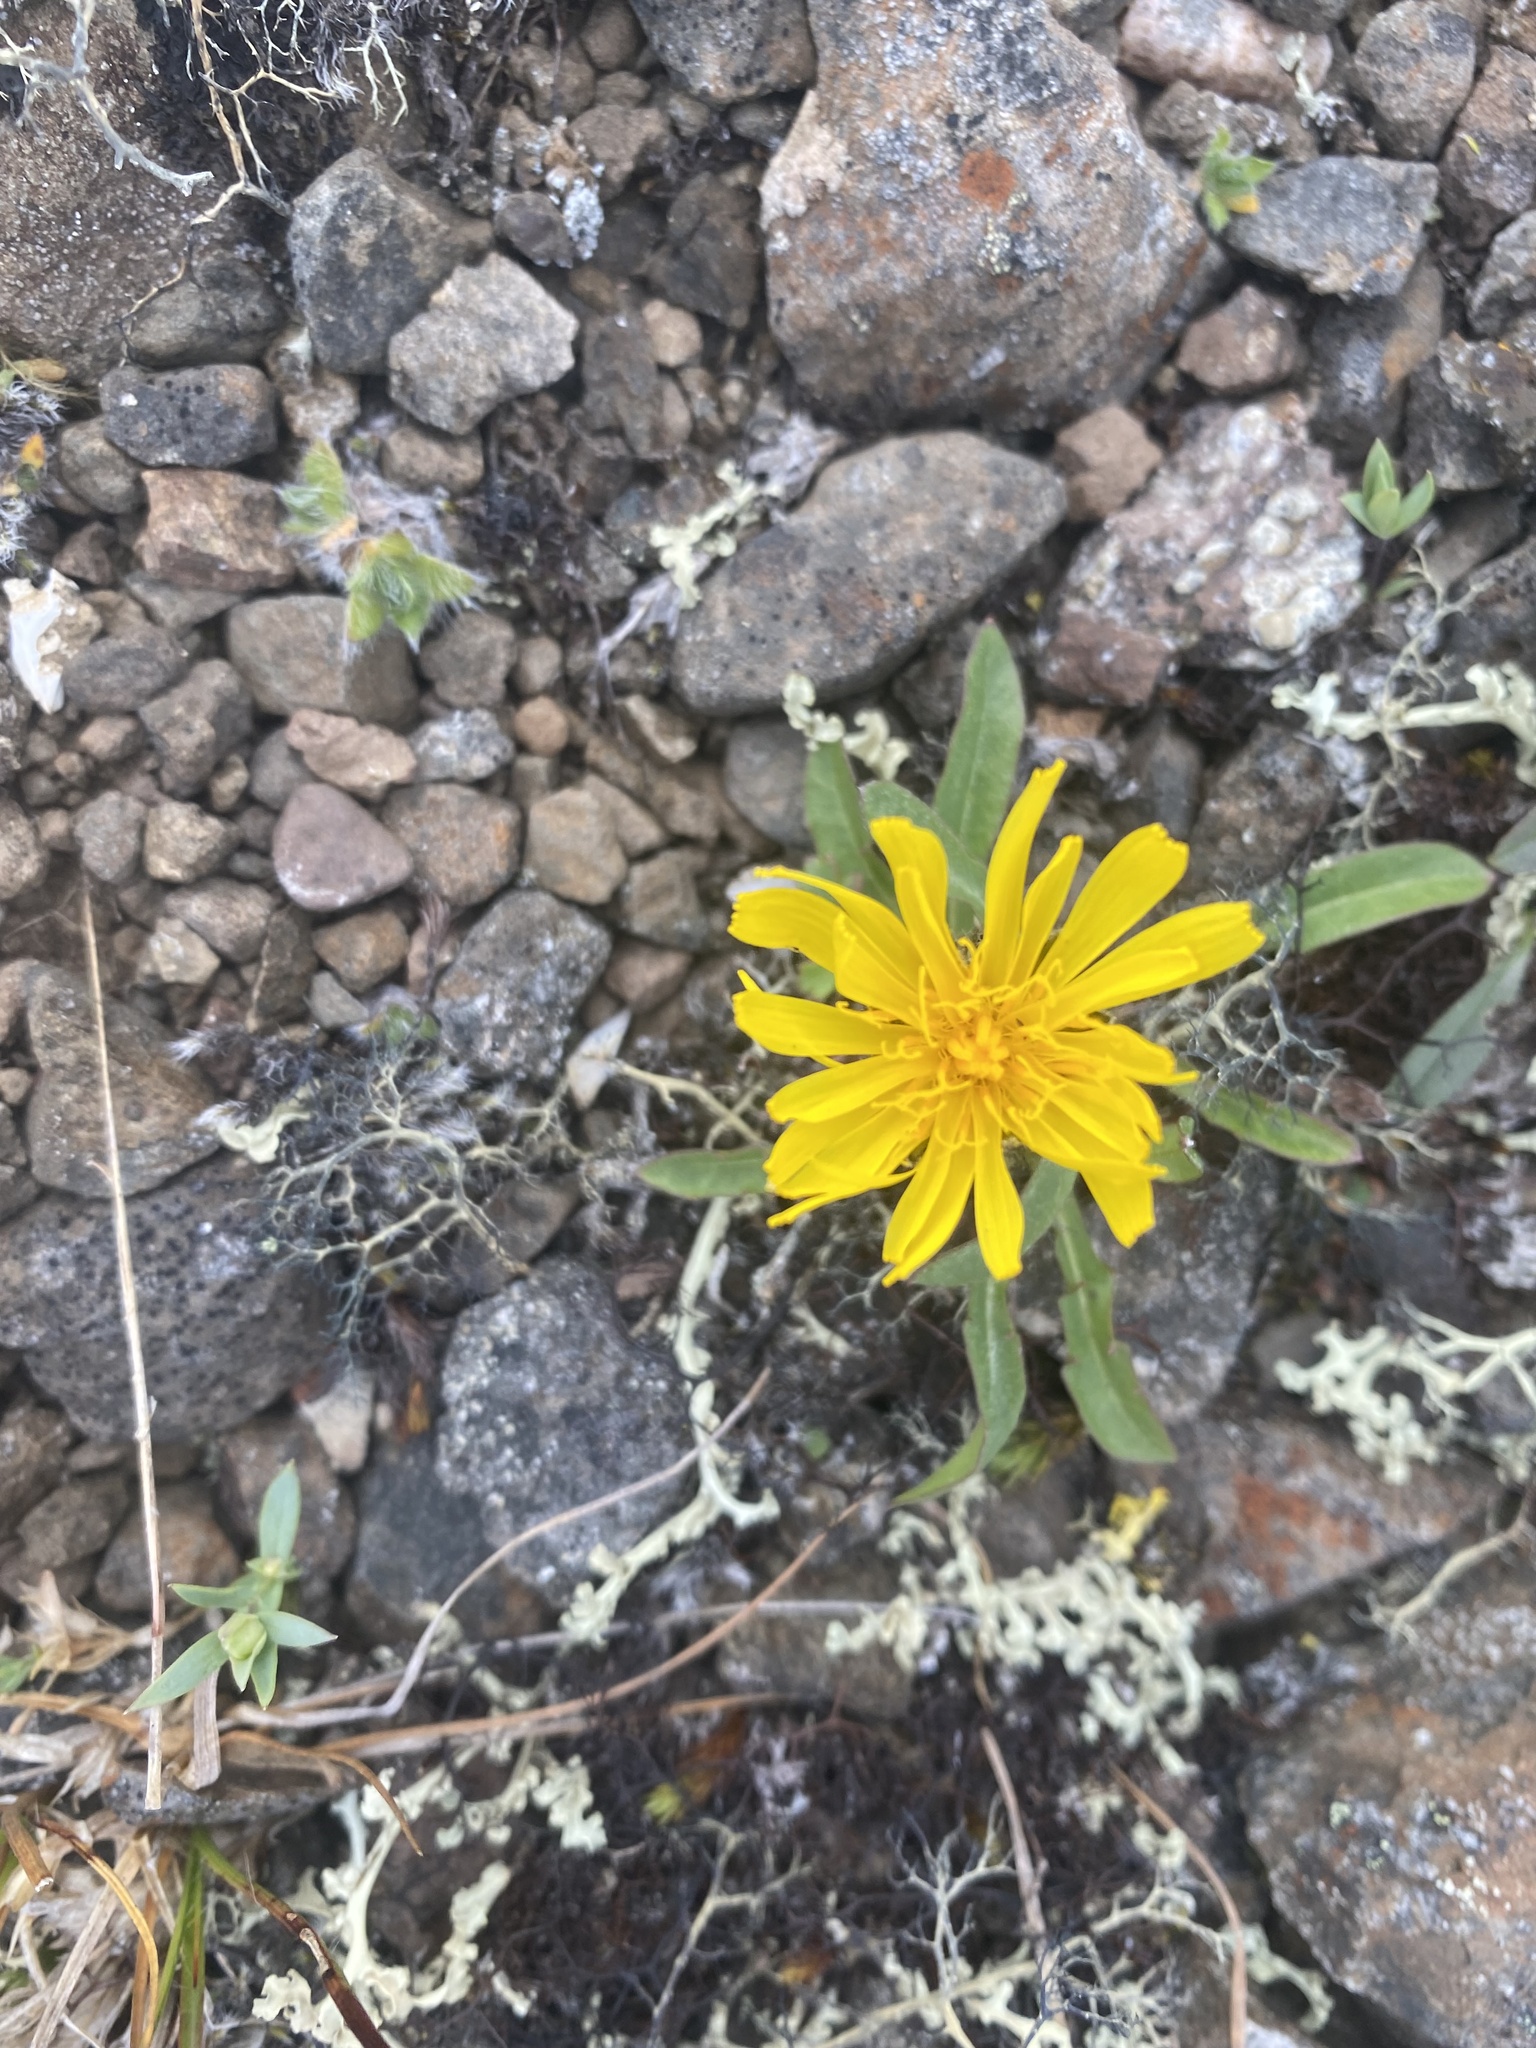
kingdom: Plantae
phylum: Tracheophyta
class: Magnoliopsida
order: Asterales
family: Asteraceae
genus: Crepis
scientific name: Crepis chrysantha
